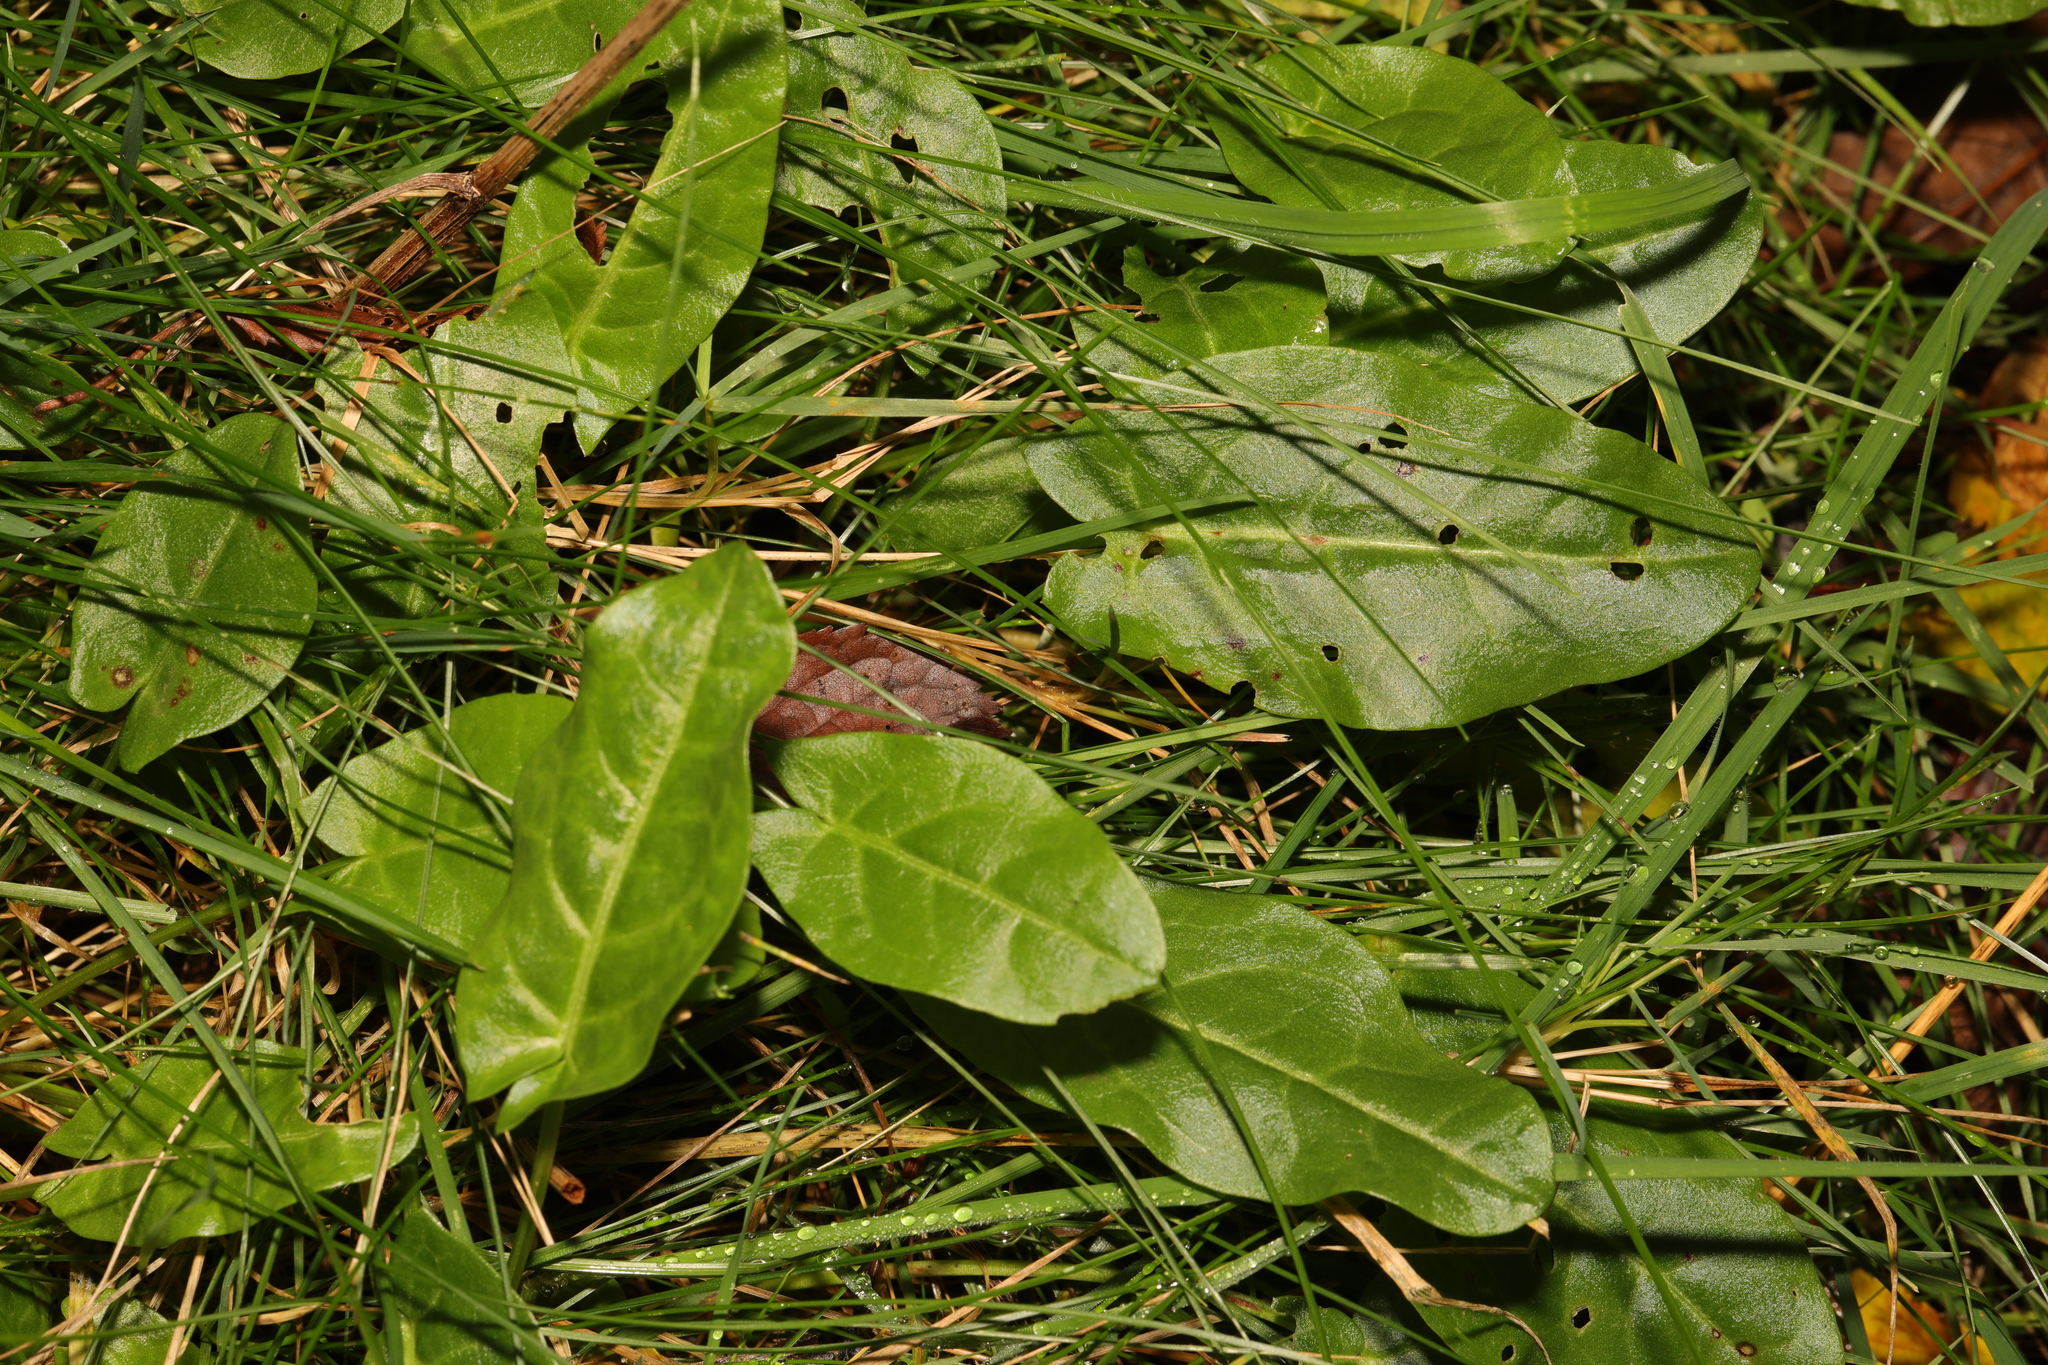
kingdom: Plantae
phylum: Tracheophyta
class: Magnoliopsida
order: Caryophyllales
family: Polygonaceae
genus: Rumex
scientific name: Rumex acetosa
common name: Garden sorrel
